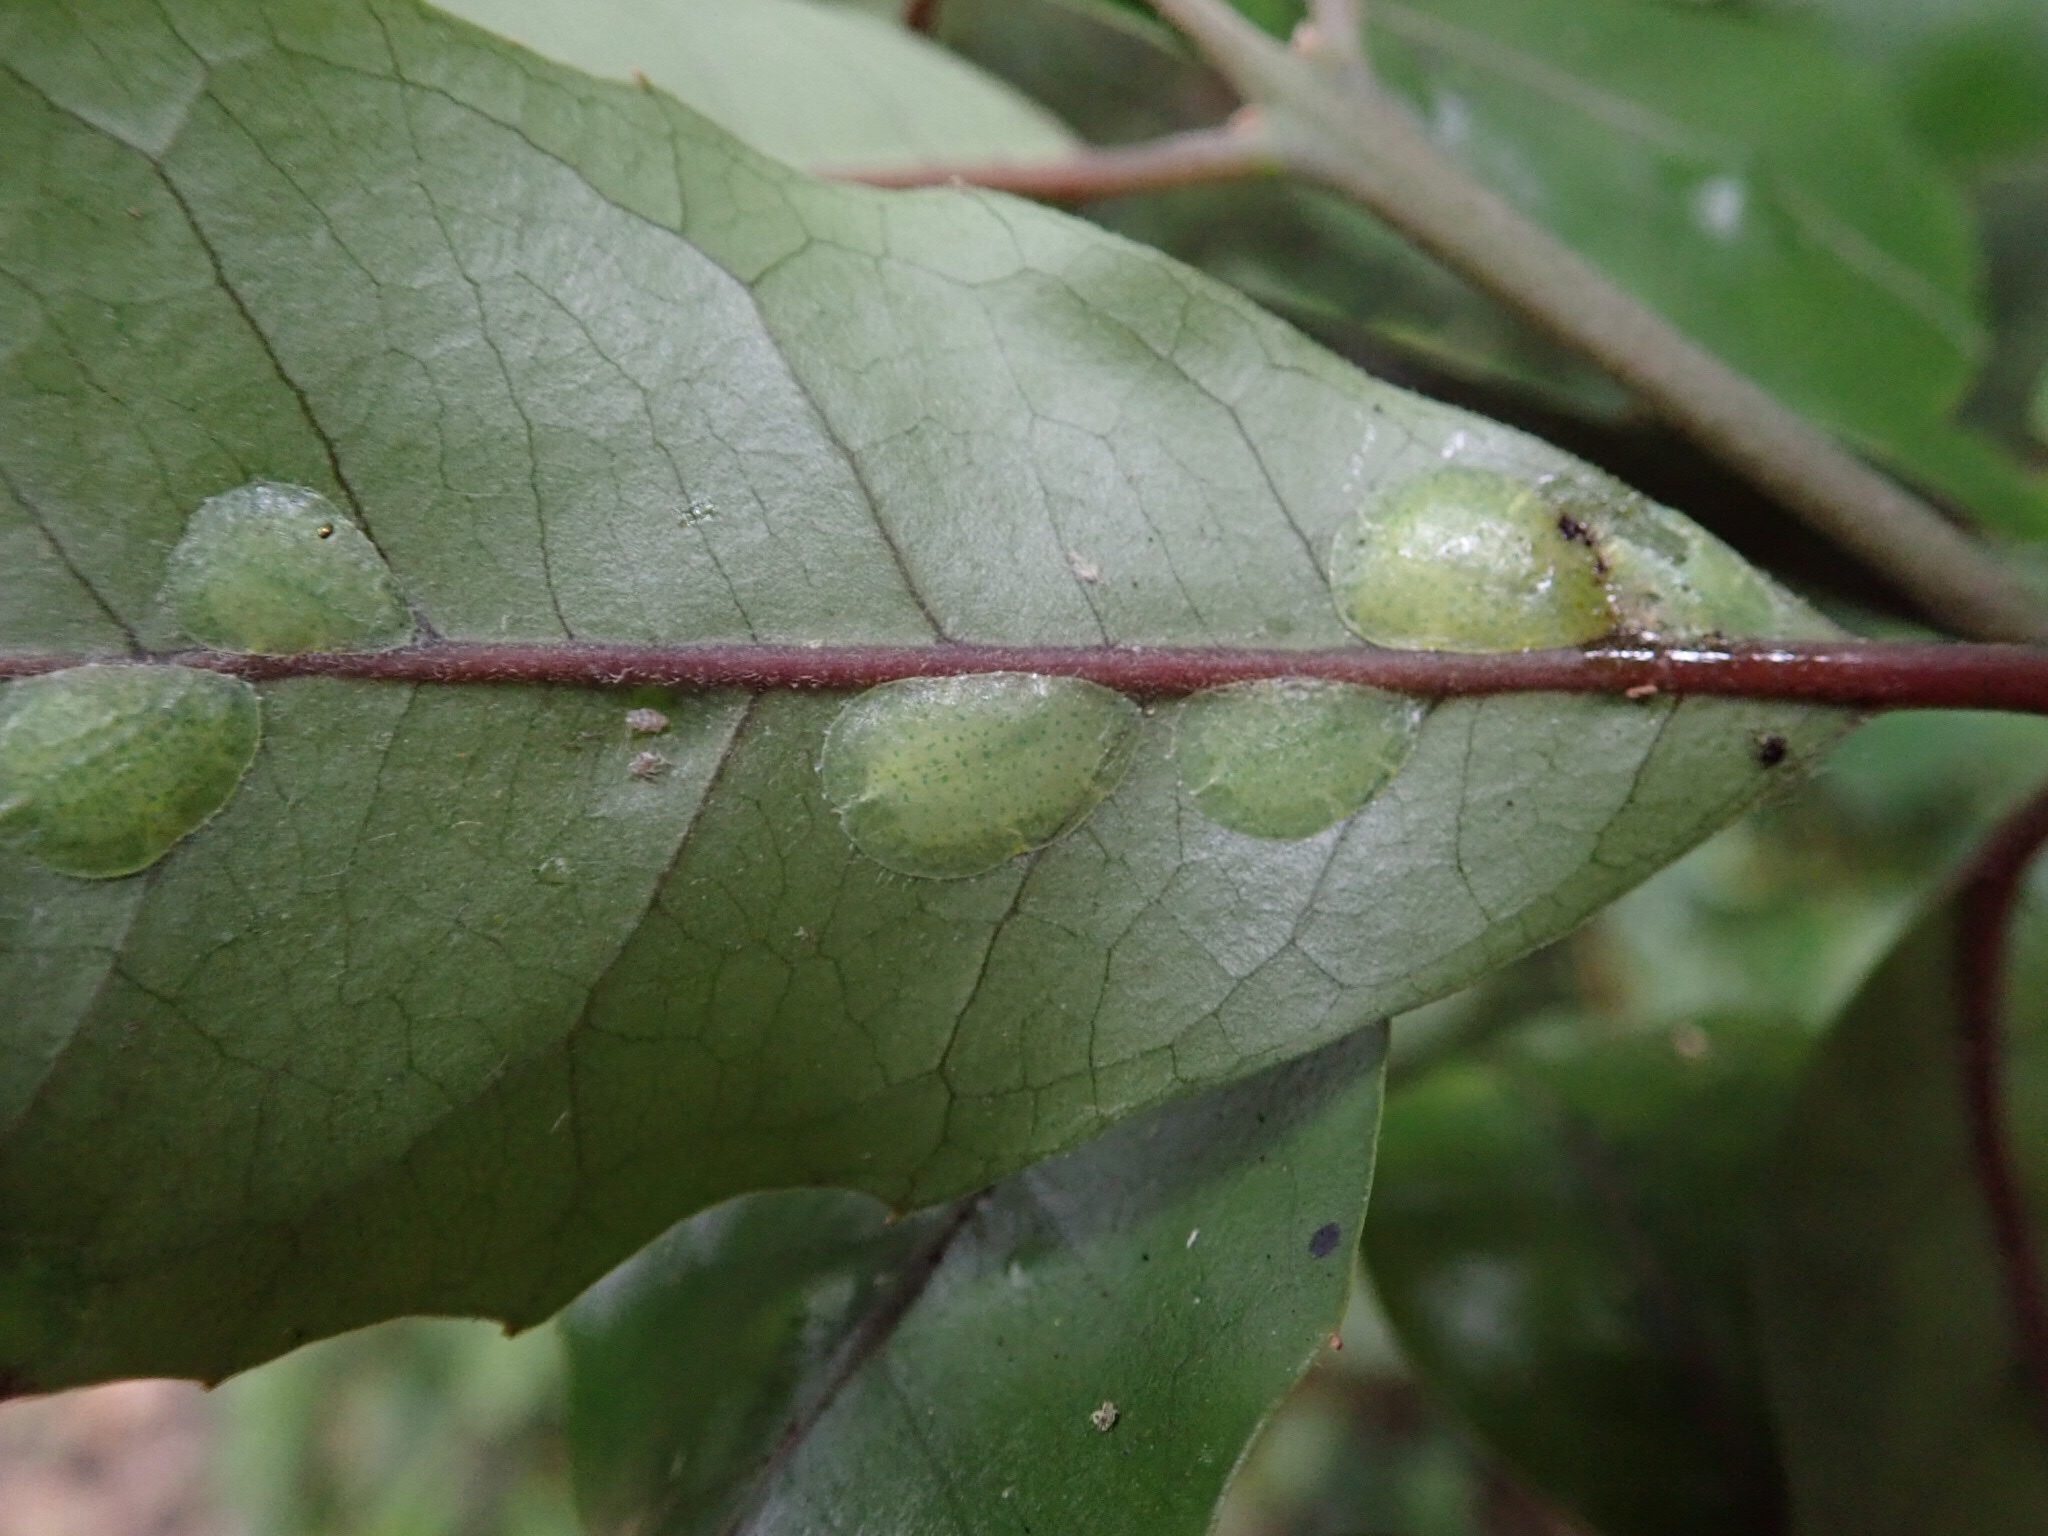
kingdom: Animalia
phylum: Arthropoda
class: Insecta
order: Hemiptera
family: Coccidae
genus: Ctenochiton
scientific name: Ctenochiton paraviridis
